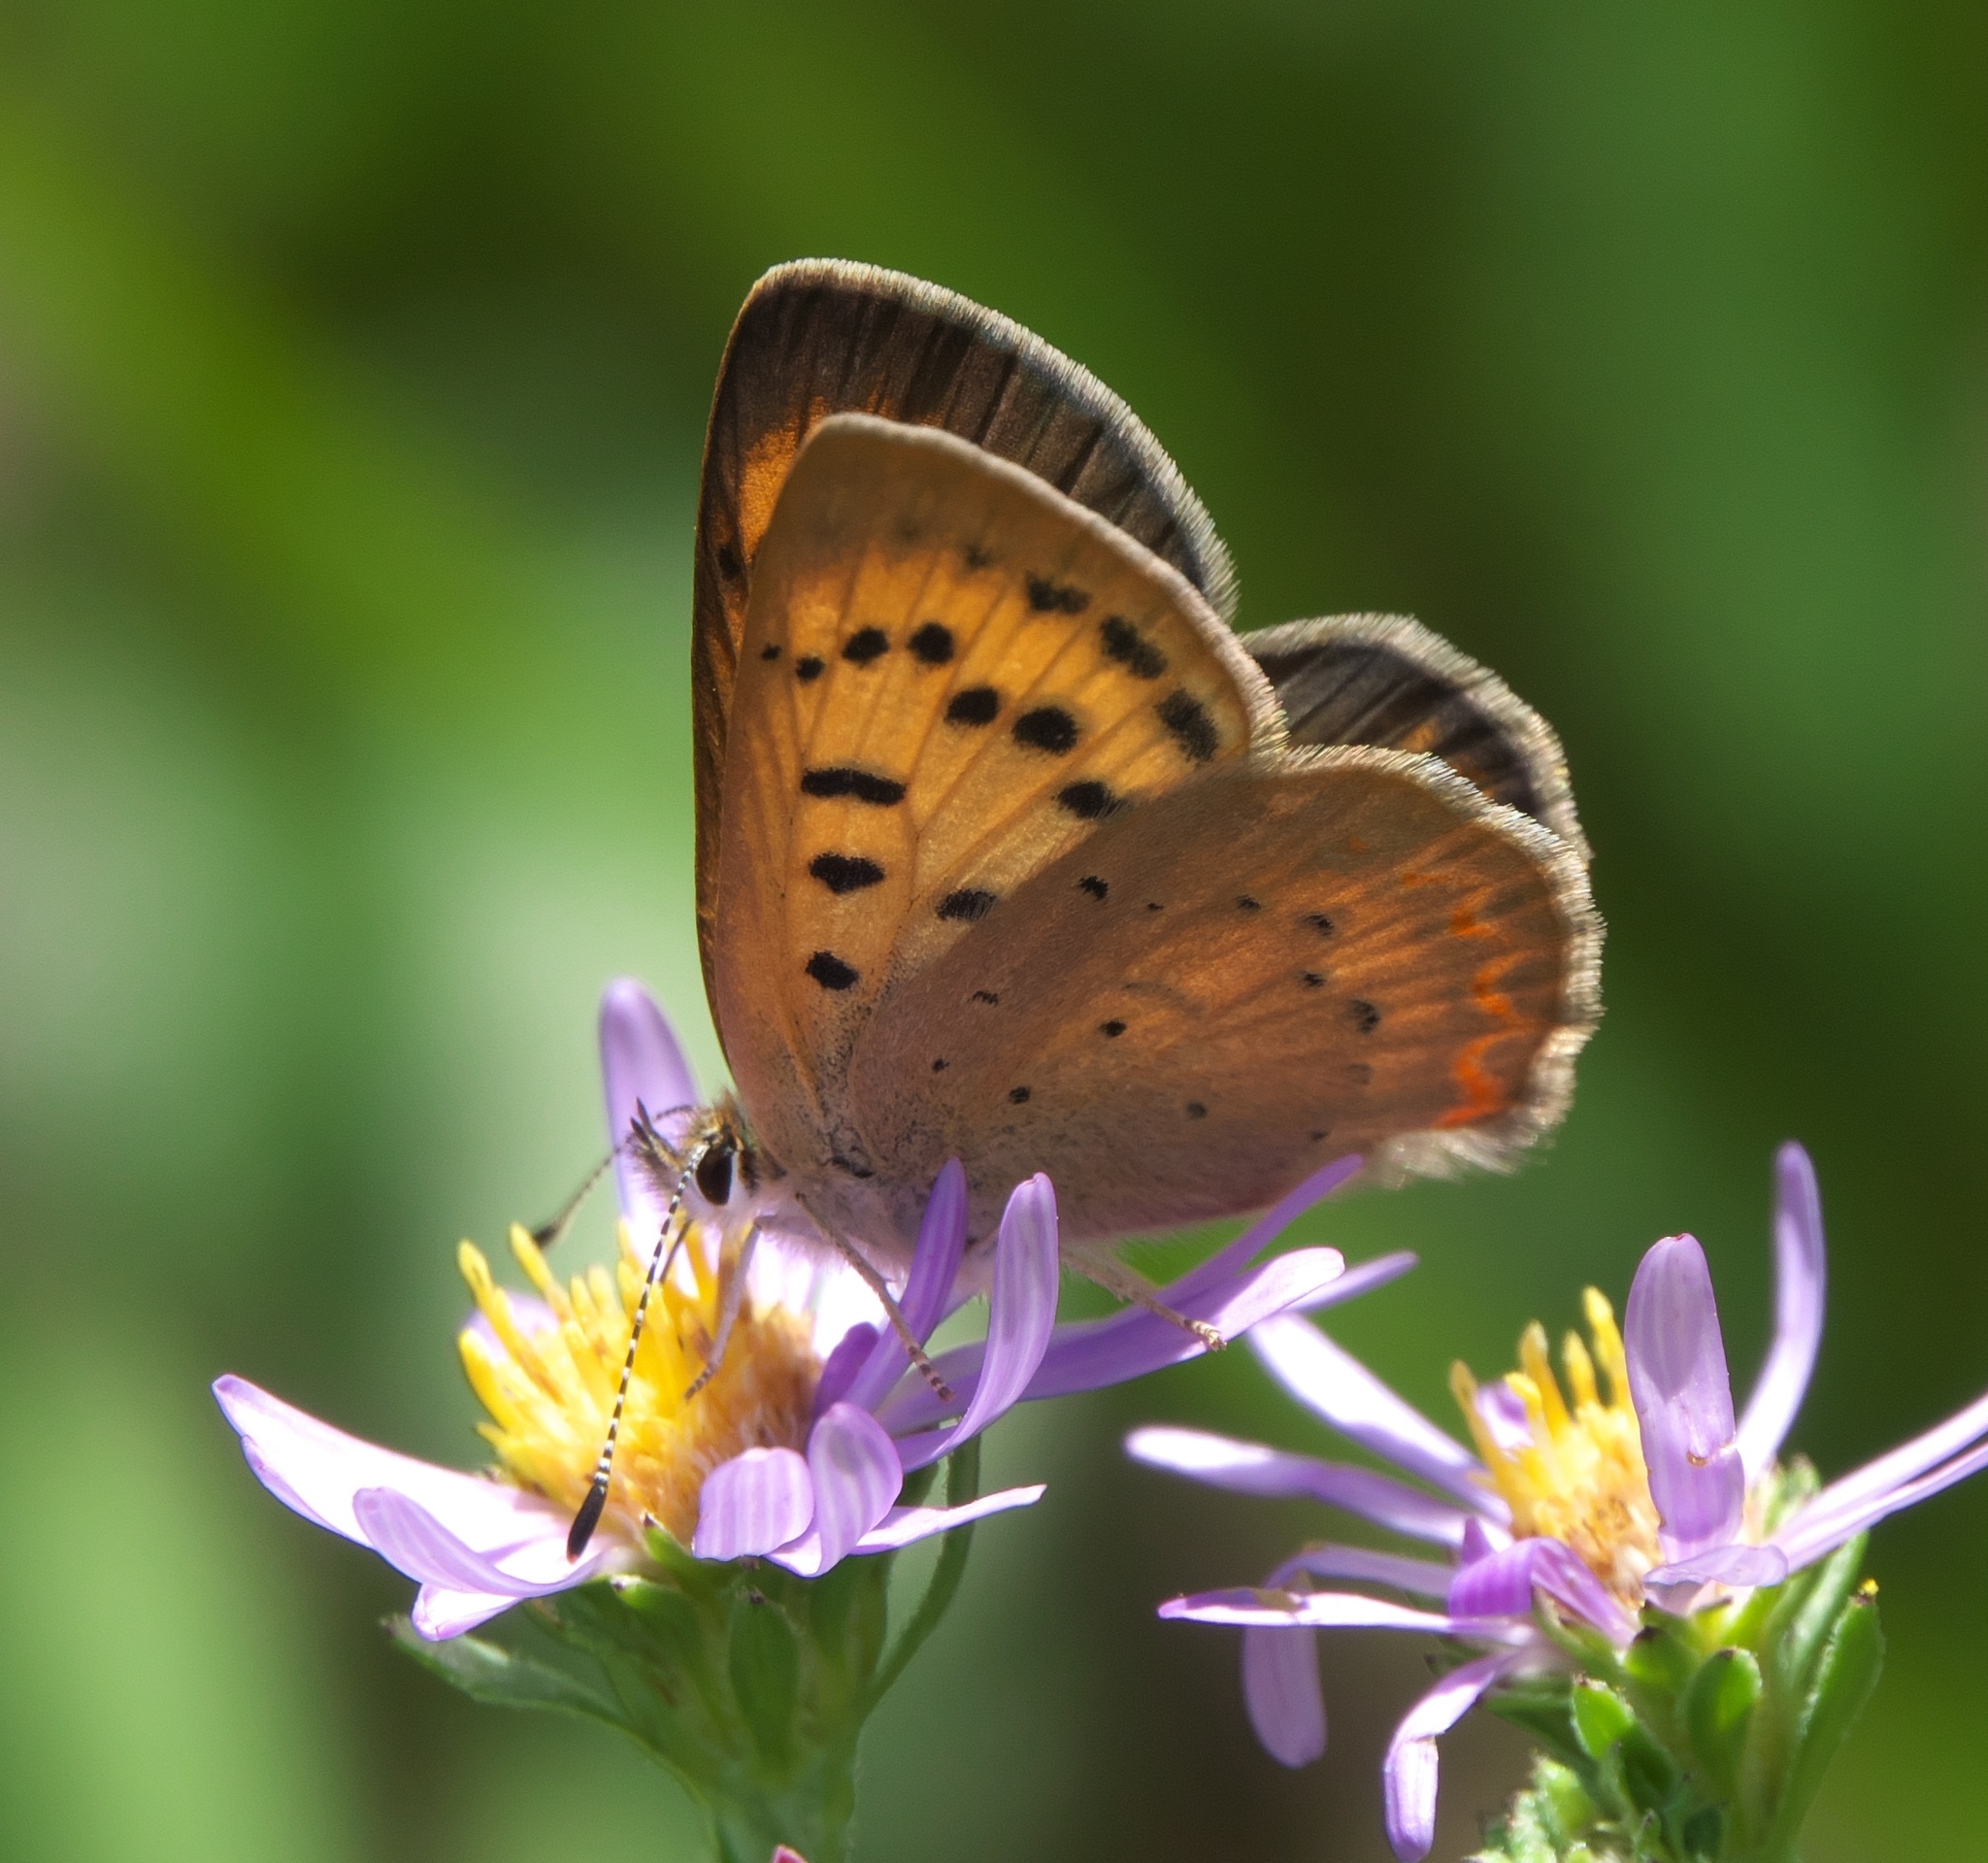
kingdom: Animalia
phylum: Arthropoda
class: Insecta
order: Lepidoptera
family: Lycaenidae
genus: Tharsalea
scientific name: Tharsalea dorcas
